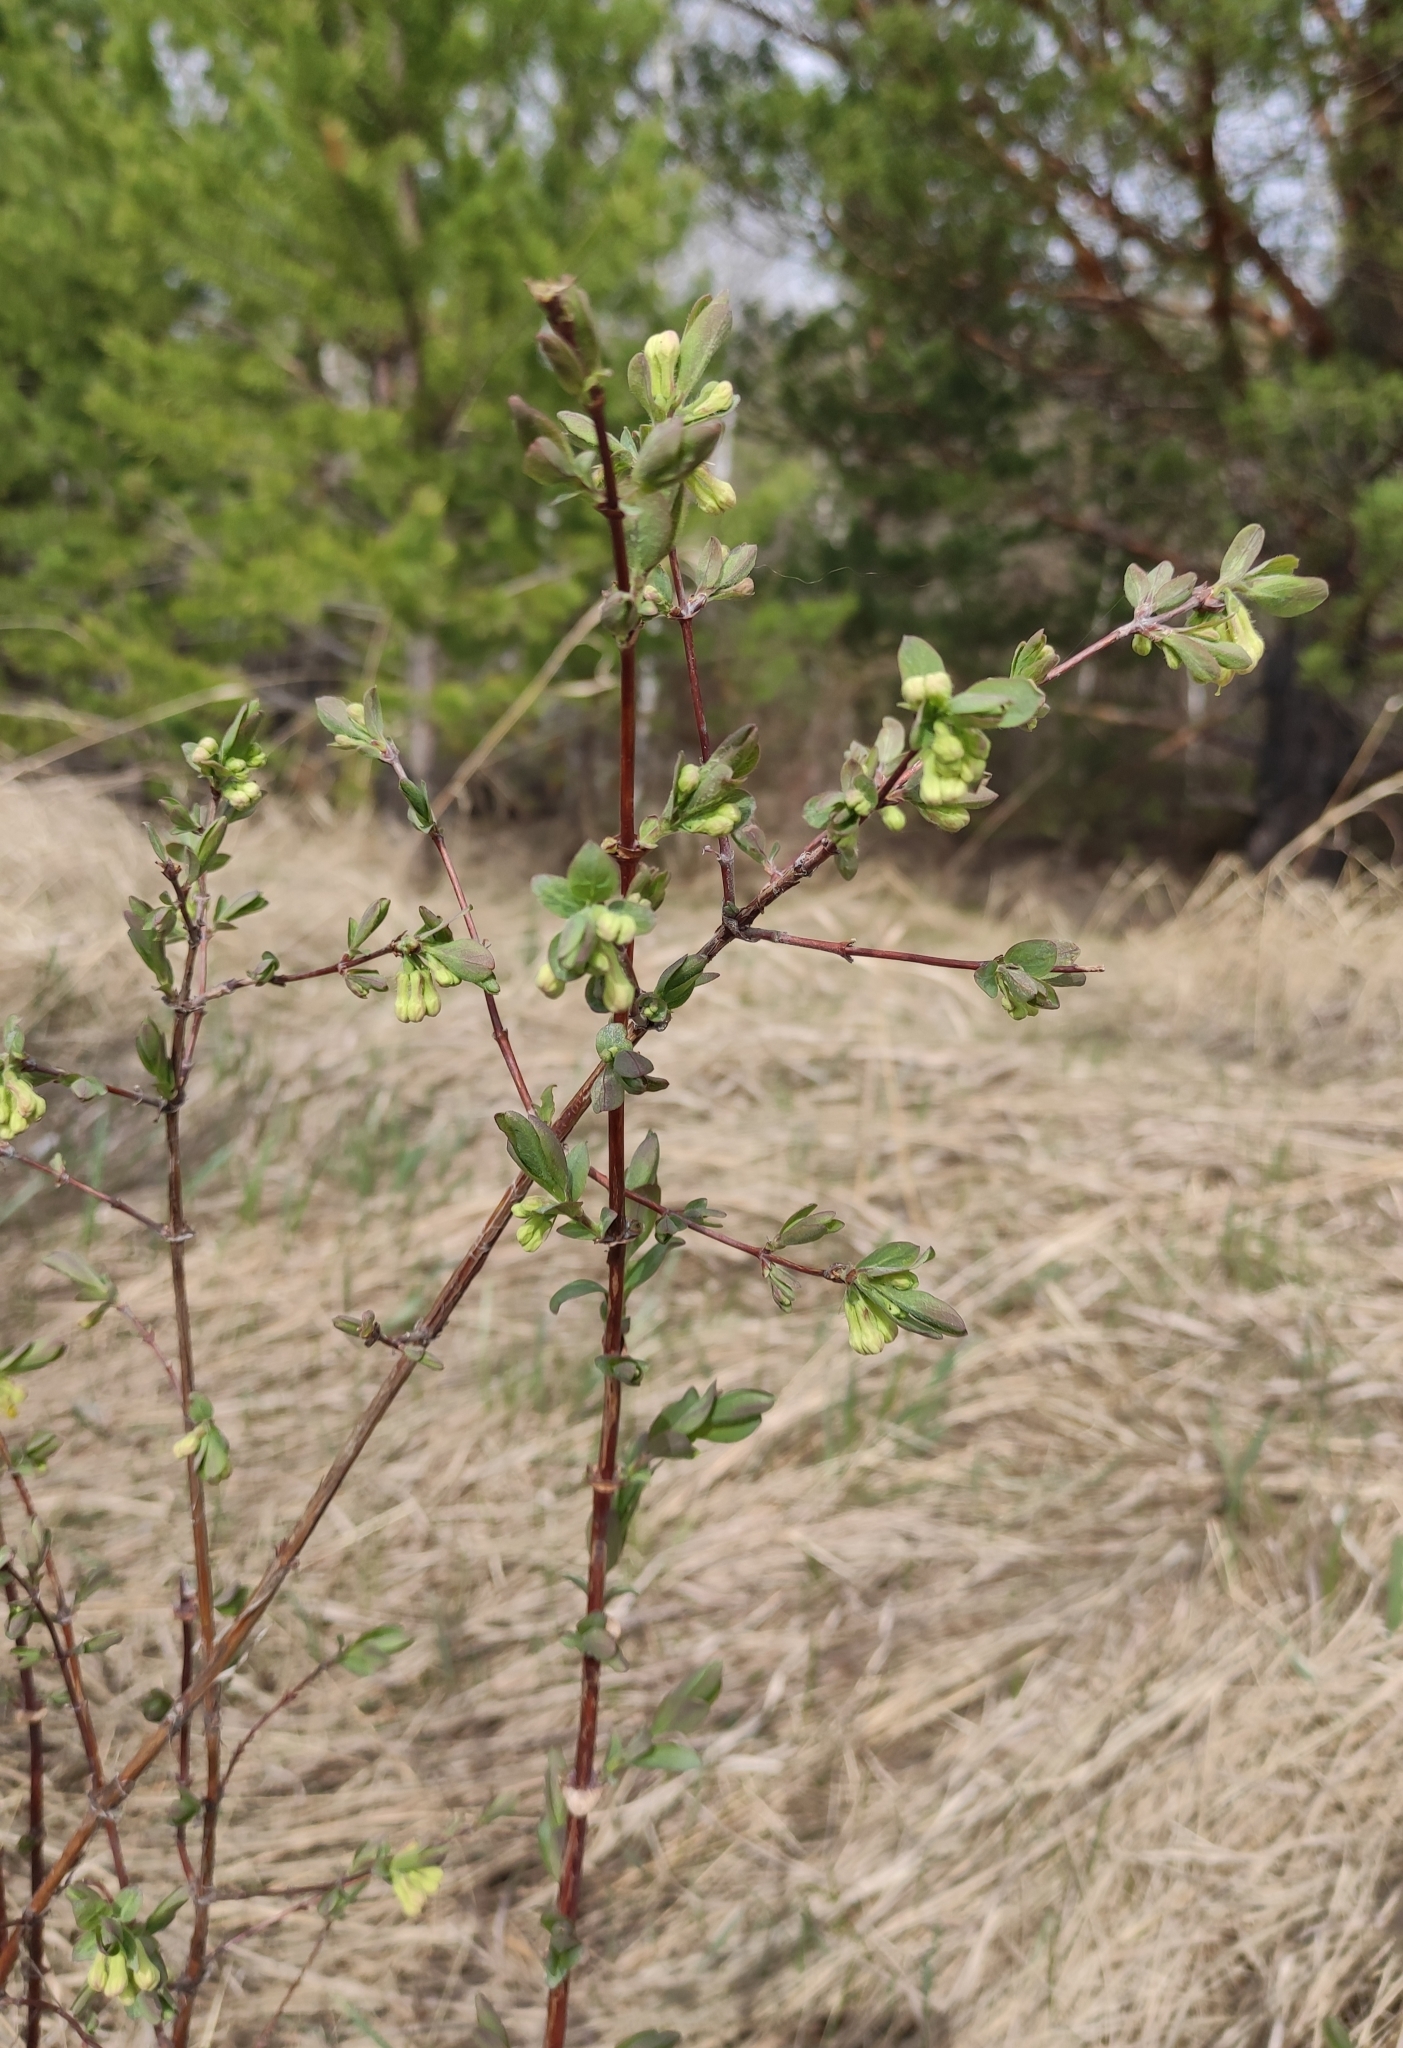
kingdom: Plantae
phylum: Tracheophyta
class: Magnoliopsida
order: Dipsacales
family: Caprifoliaceae
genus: Lonicera
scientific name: Lonicera caerulea
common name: Blue honeysuckle
